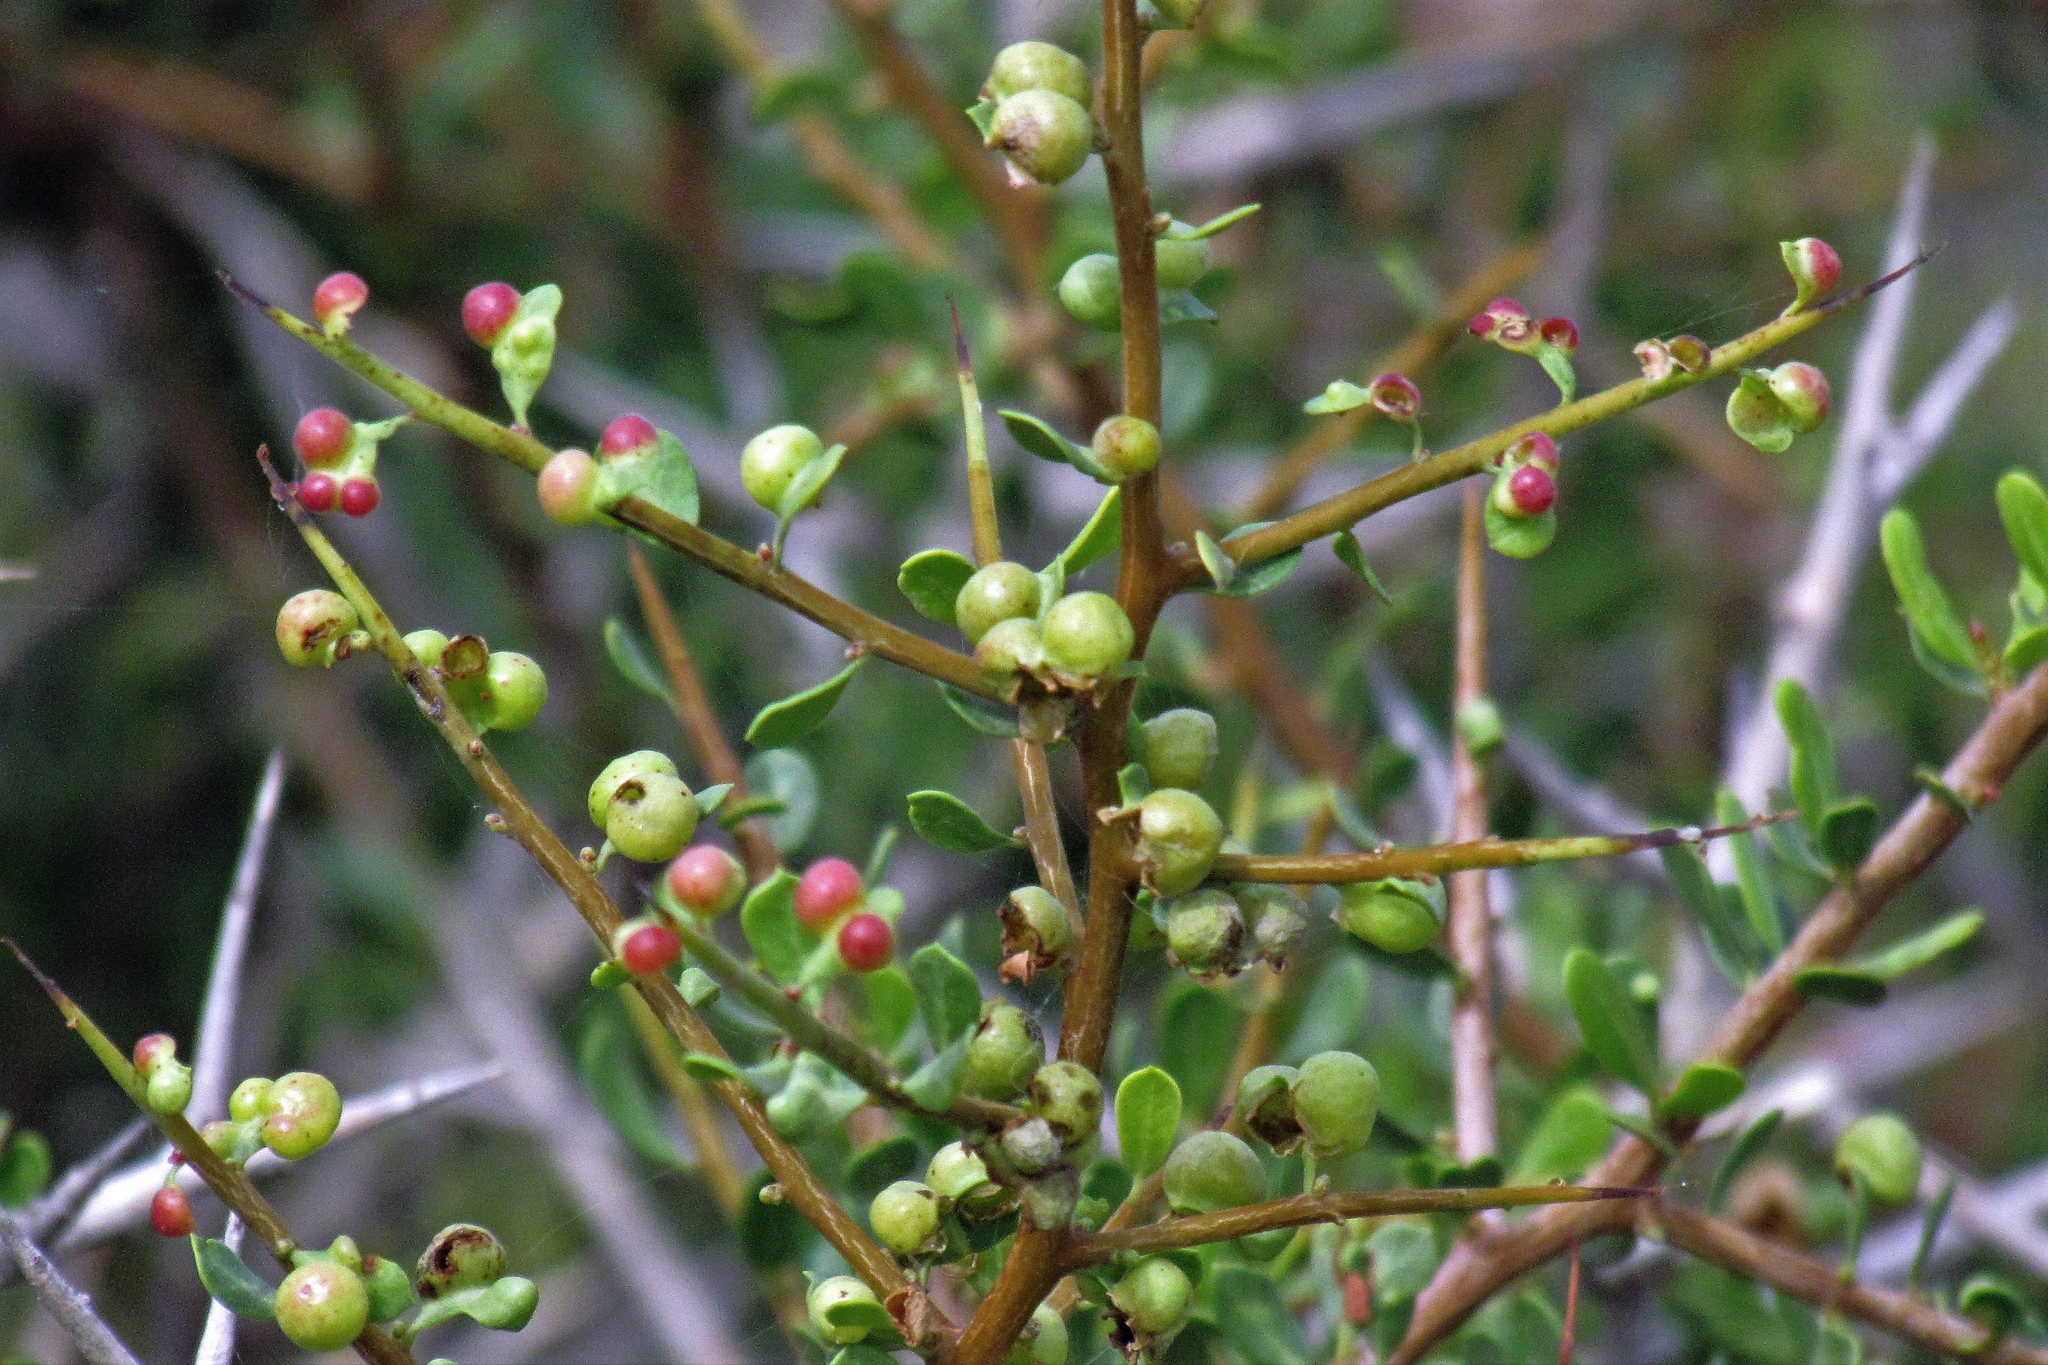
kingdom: Plantae
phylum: Tracheophyta
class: Magnoliopsida
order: Rosales
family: Rhamnaceae
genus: Condalia
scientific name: Condalia microphylla
